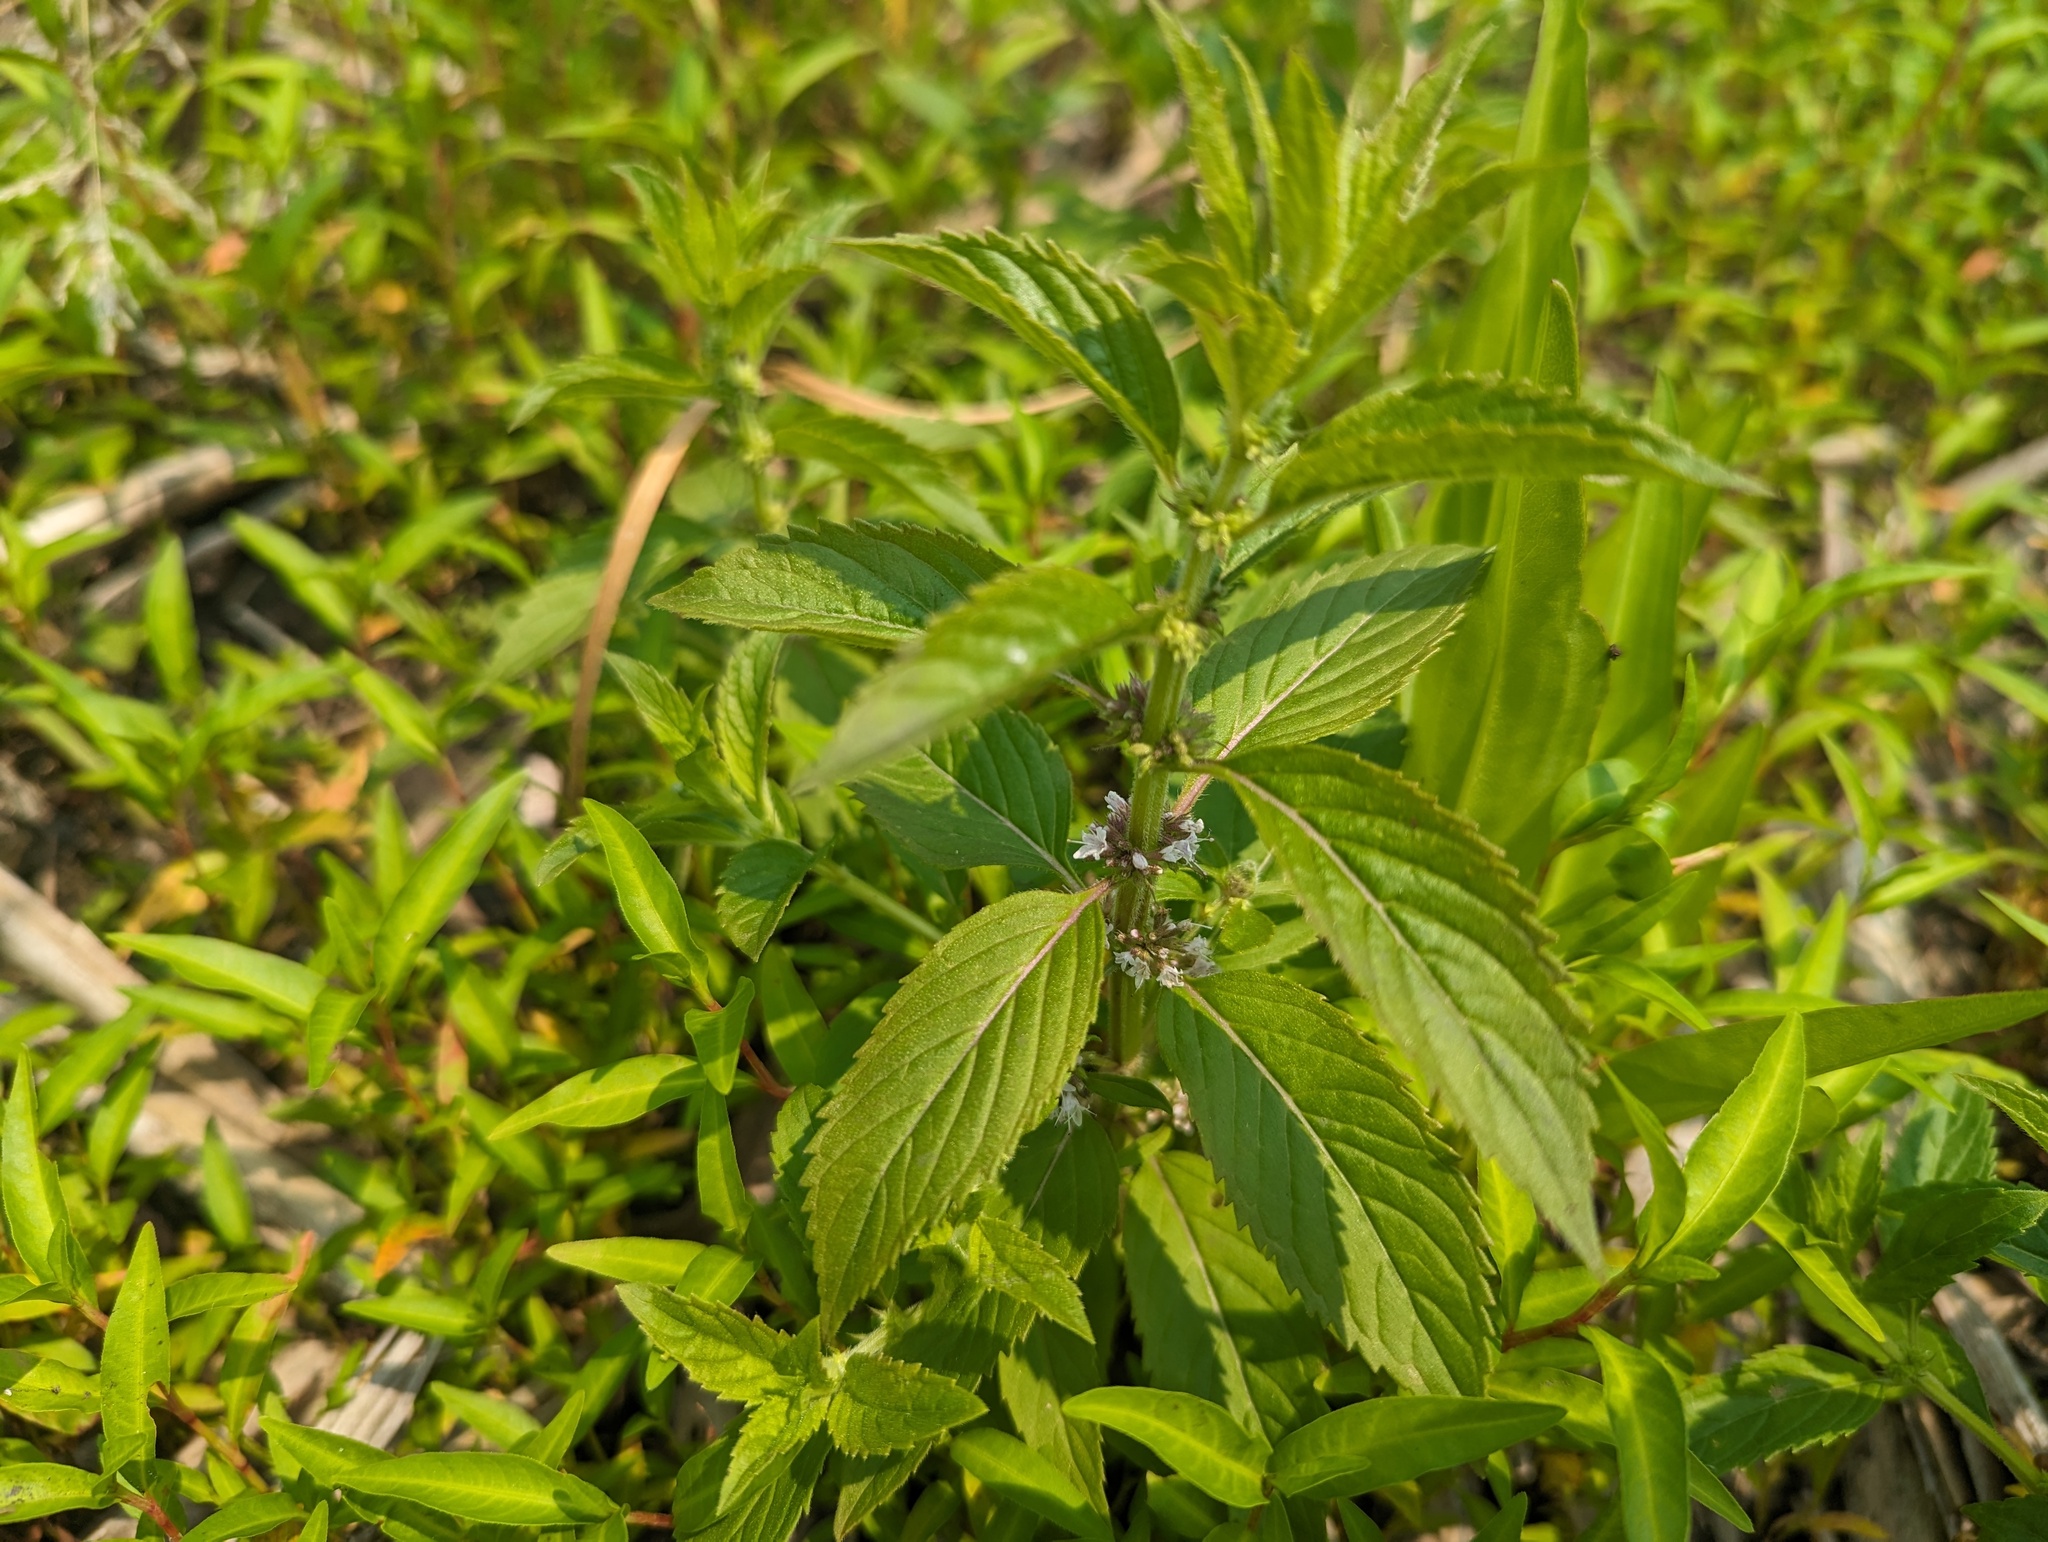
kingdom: Plantae
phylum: Tracheophyta
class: Magnoliopsida
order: Lamiales
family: Lamiaceae
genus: Mentha
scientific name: Mentha canadensis
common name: American corn mint
